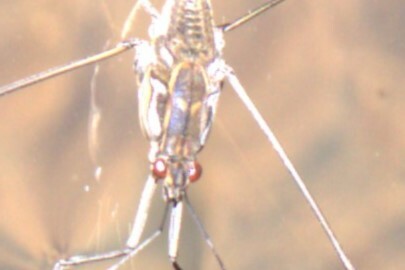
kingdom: Animalia
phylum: Arthropoda
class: Insecta
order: Hemiptera
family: Gerridae
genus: Tenagogerris
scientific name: Tenagogerris euphrosyne
